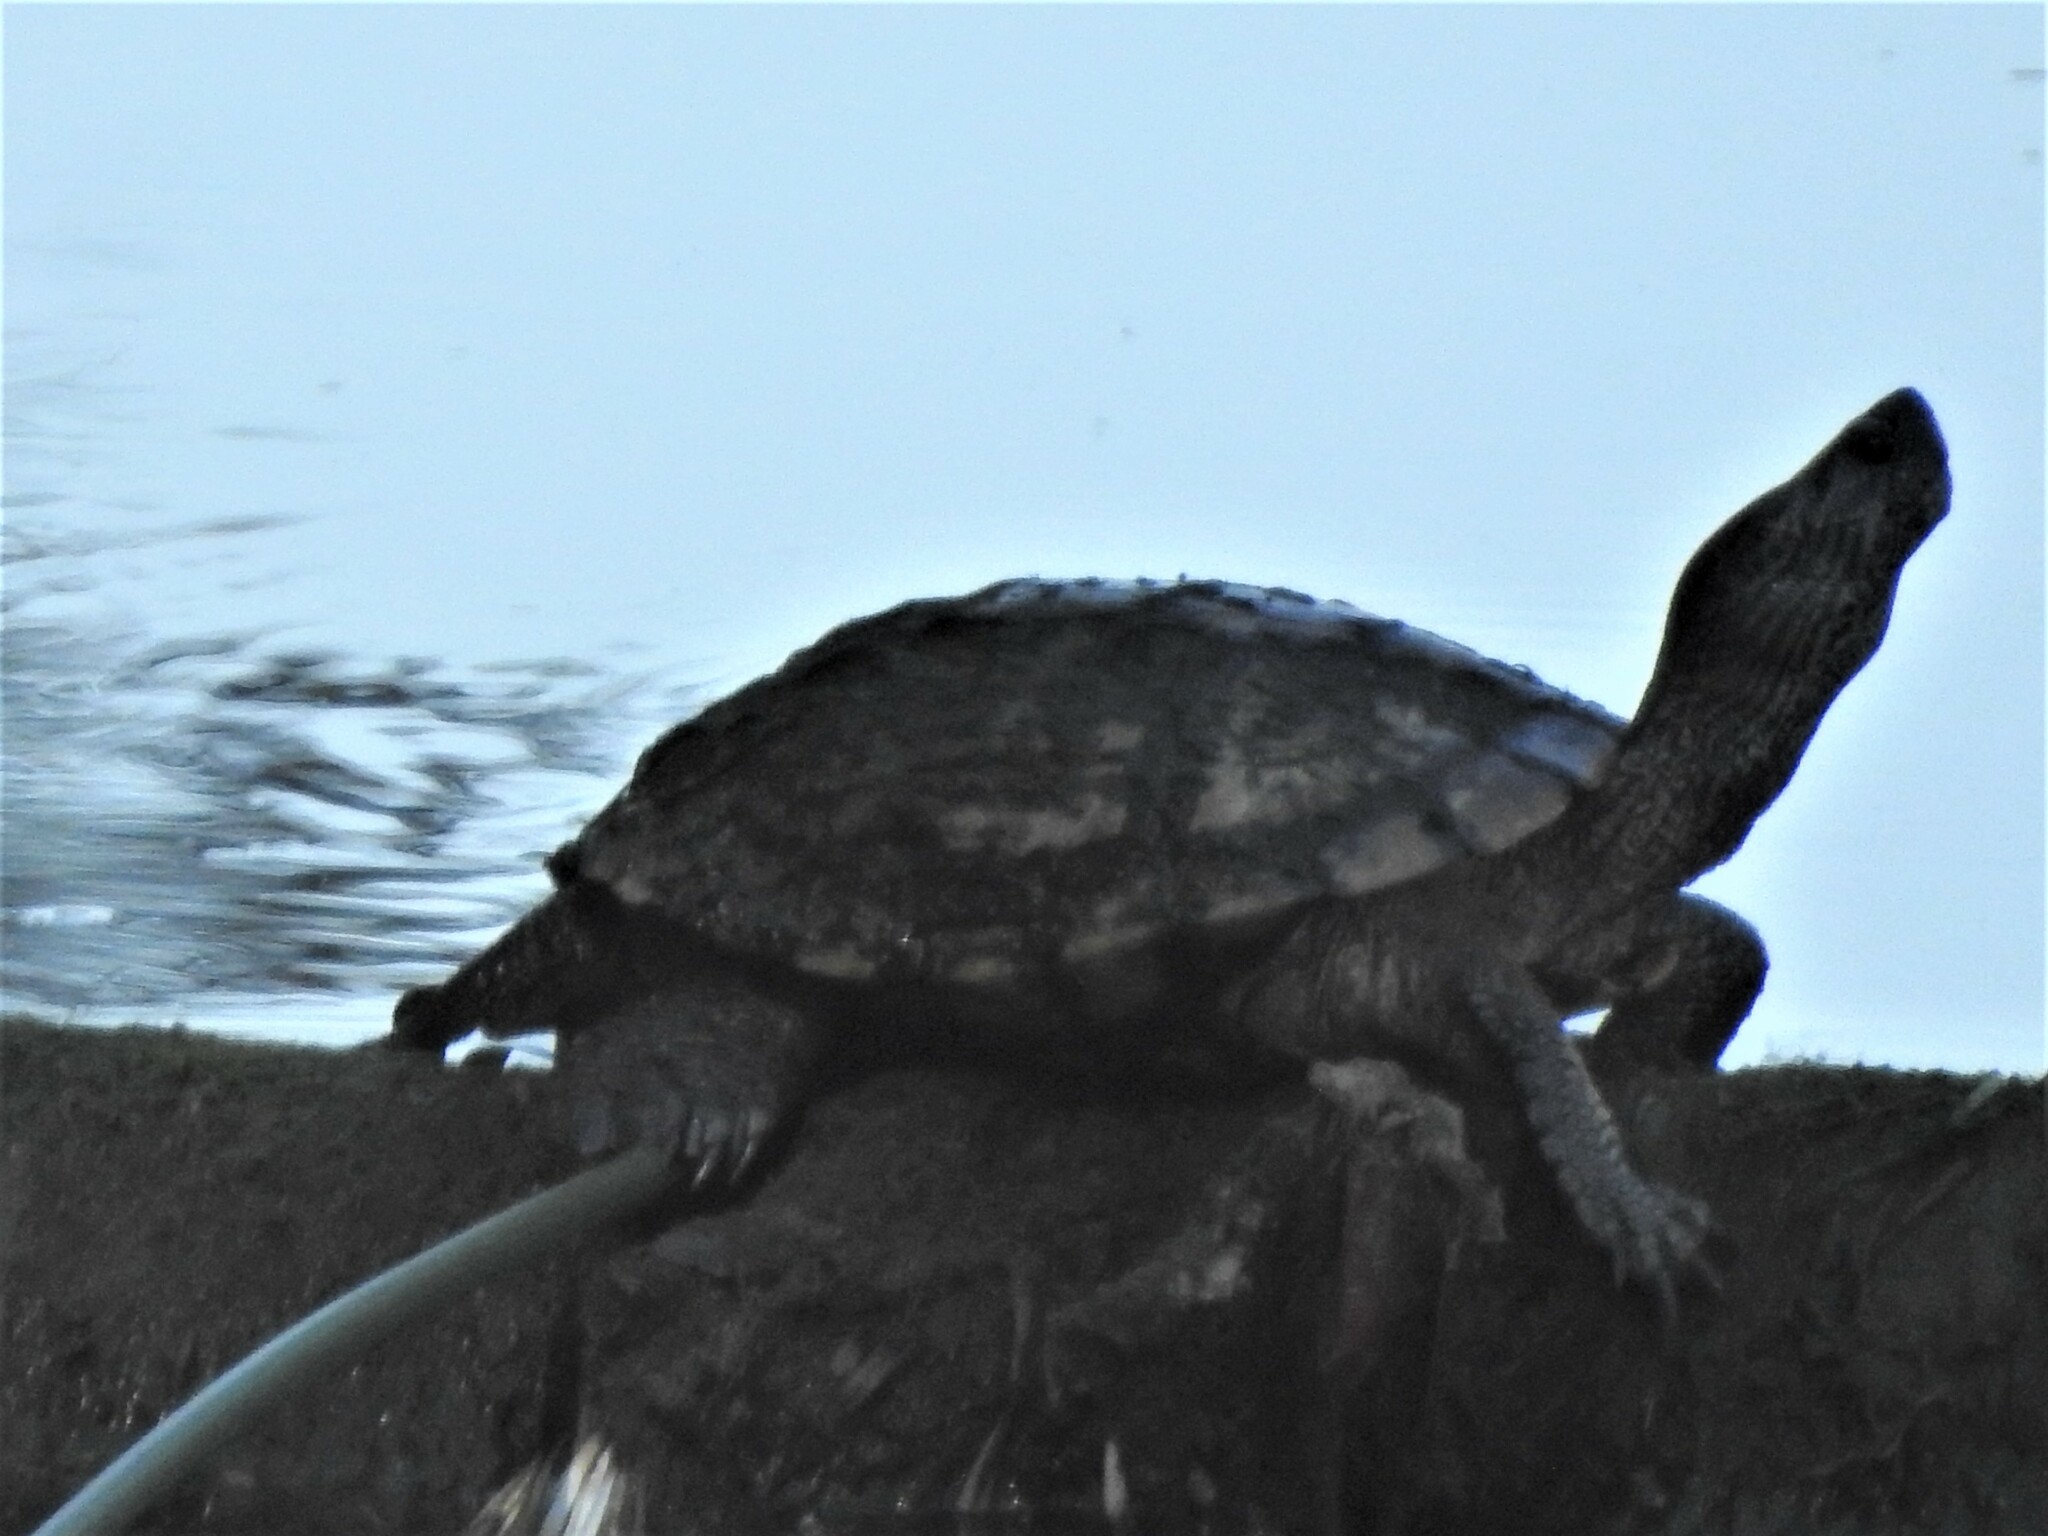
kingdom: Animalia
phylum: Chordata
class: Testudines
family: Emydidae
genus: Trachemys
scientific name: Trachemys scripta
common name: Slider
